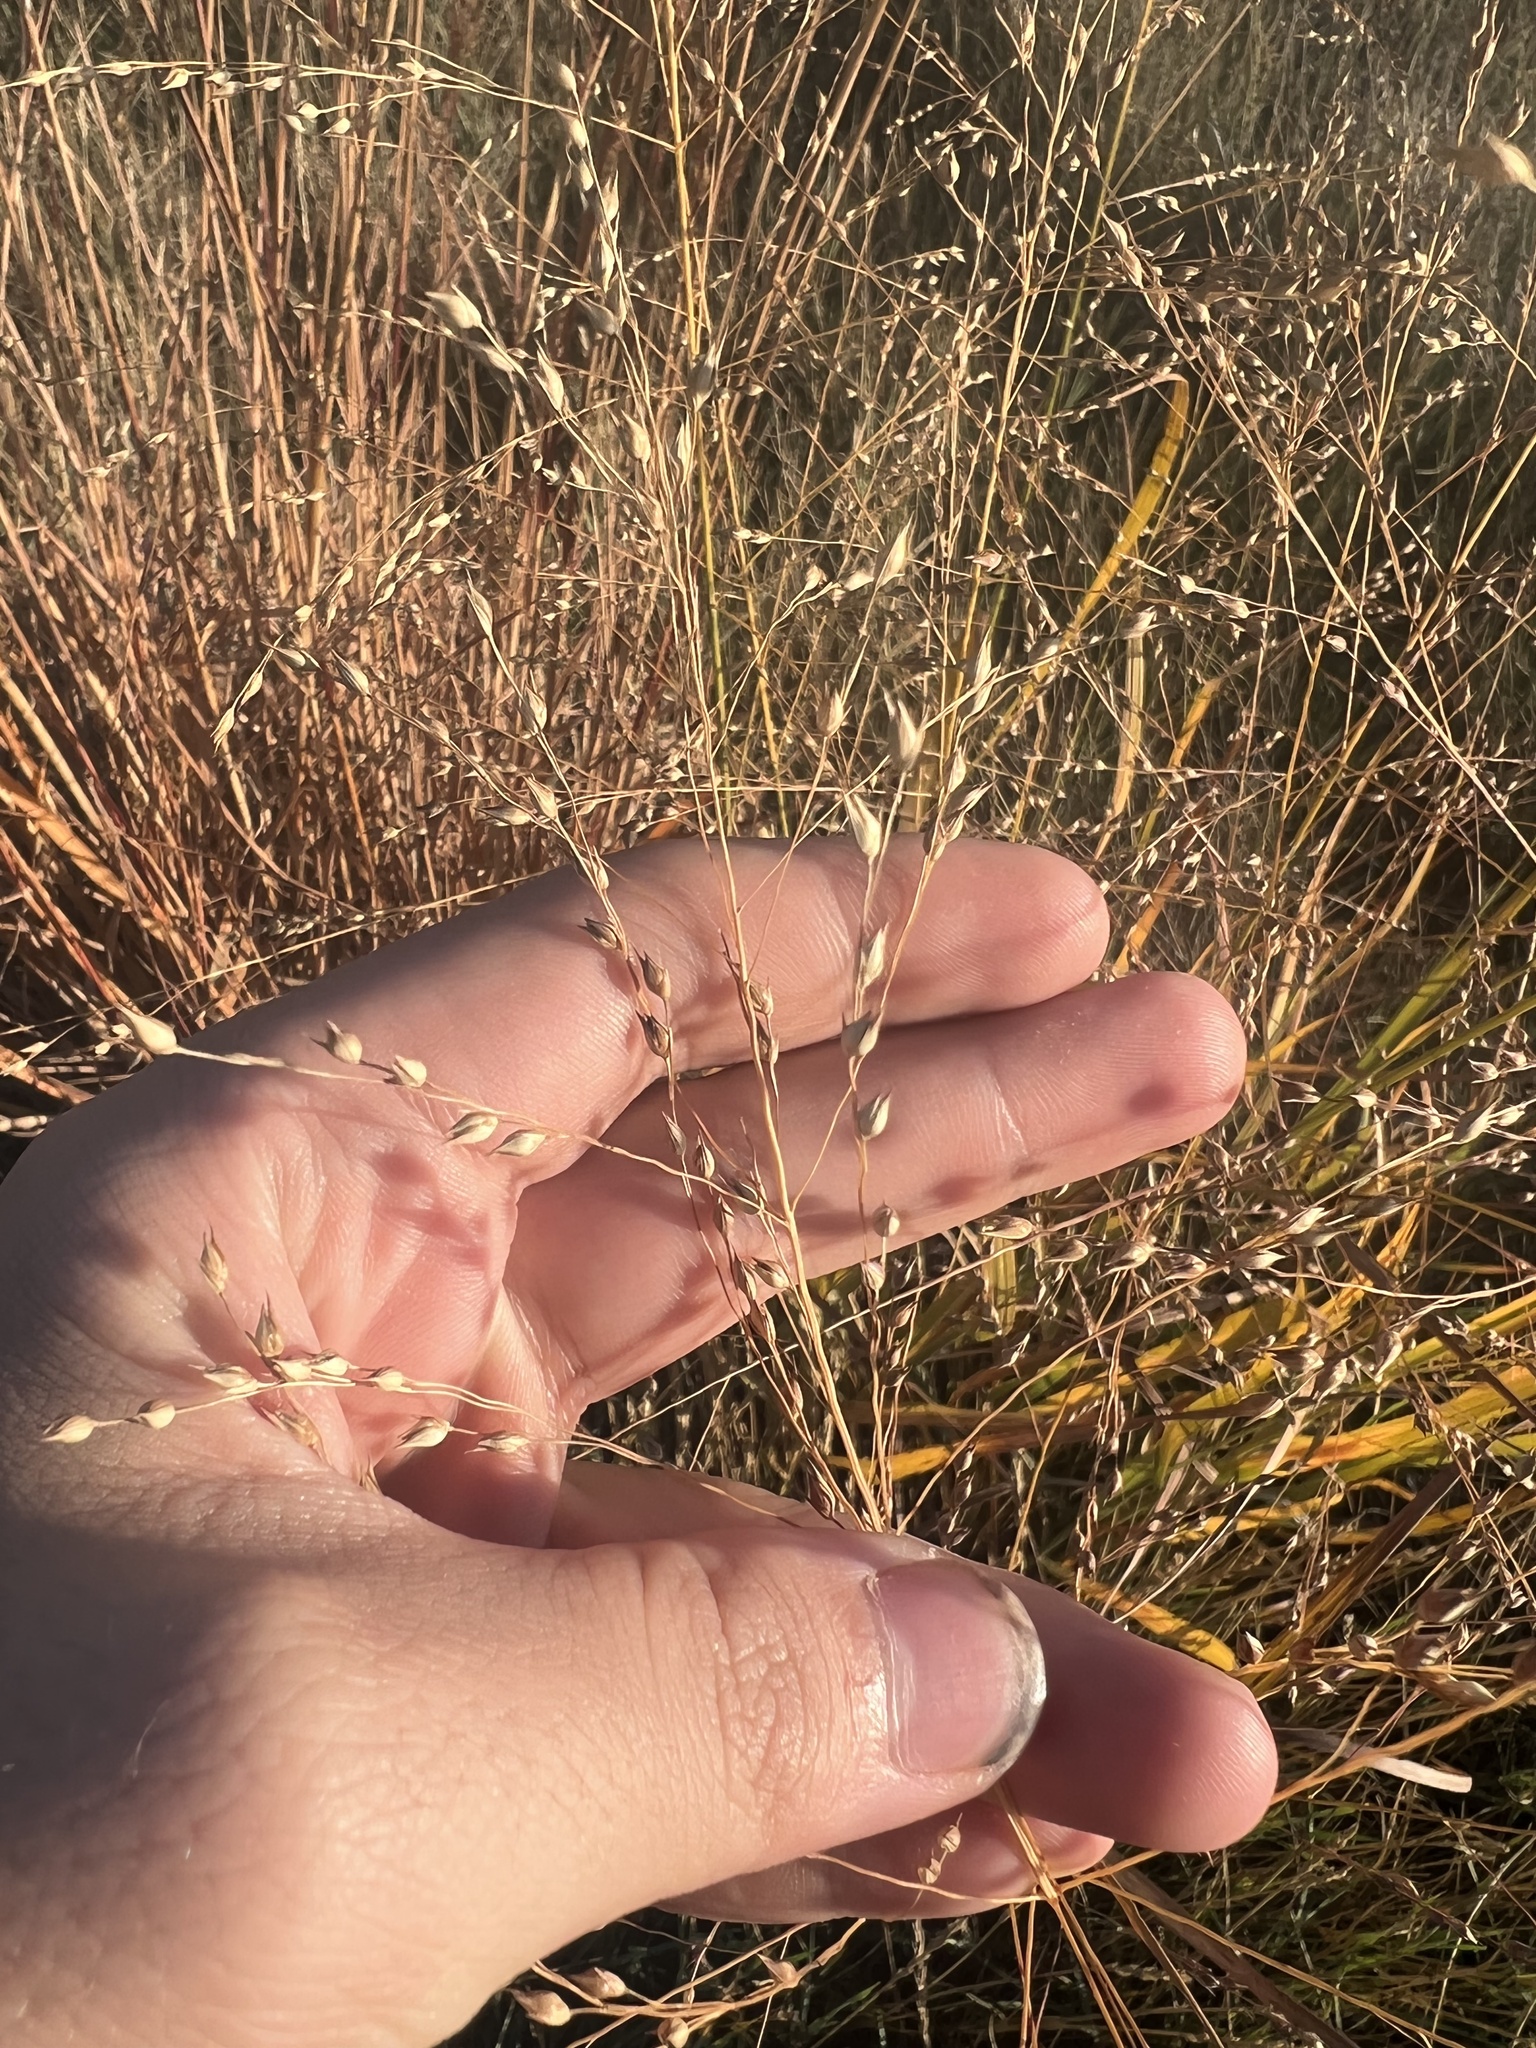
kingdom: Plantae
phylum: Tracheophyta
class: Liliopsida
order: Poales
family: Poaceae
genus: Panicum
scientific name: Panicum virgatum
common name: Switchgrass
